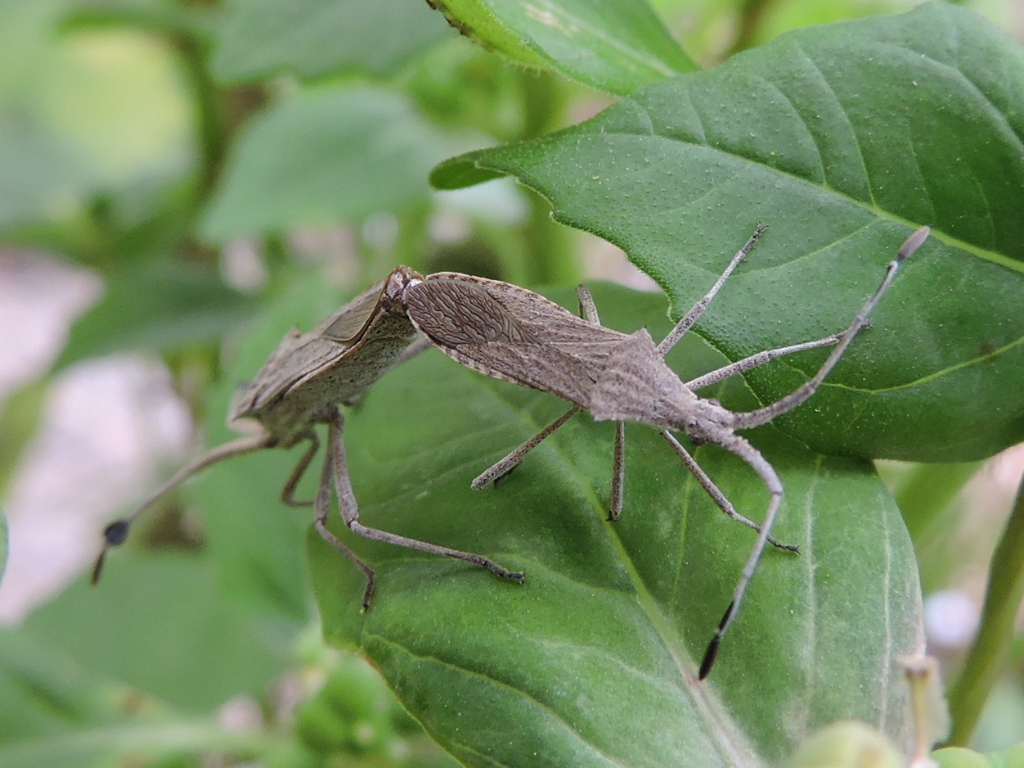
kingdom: Animalia
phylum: Arthropoda
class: Insecta
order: Hemiptera
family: Coreidae
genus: Chariesterus
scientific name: Chariesterus antennator
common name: Flat horned coreid
